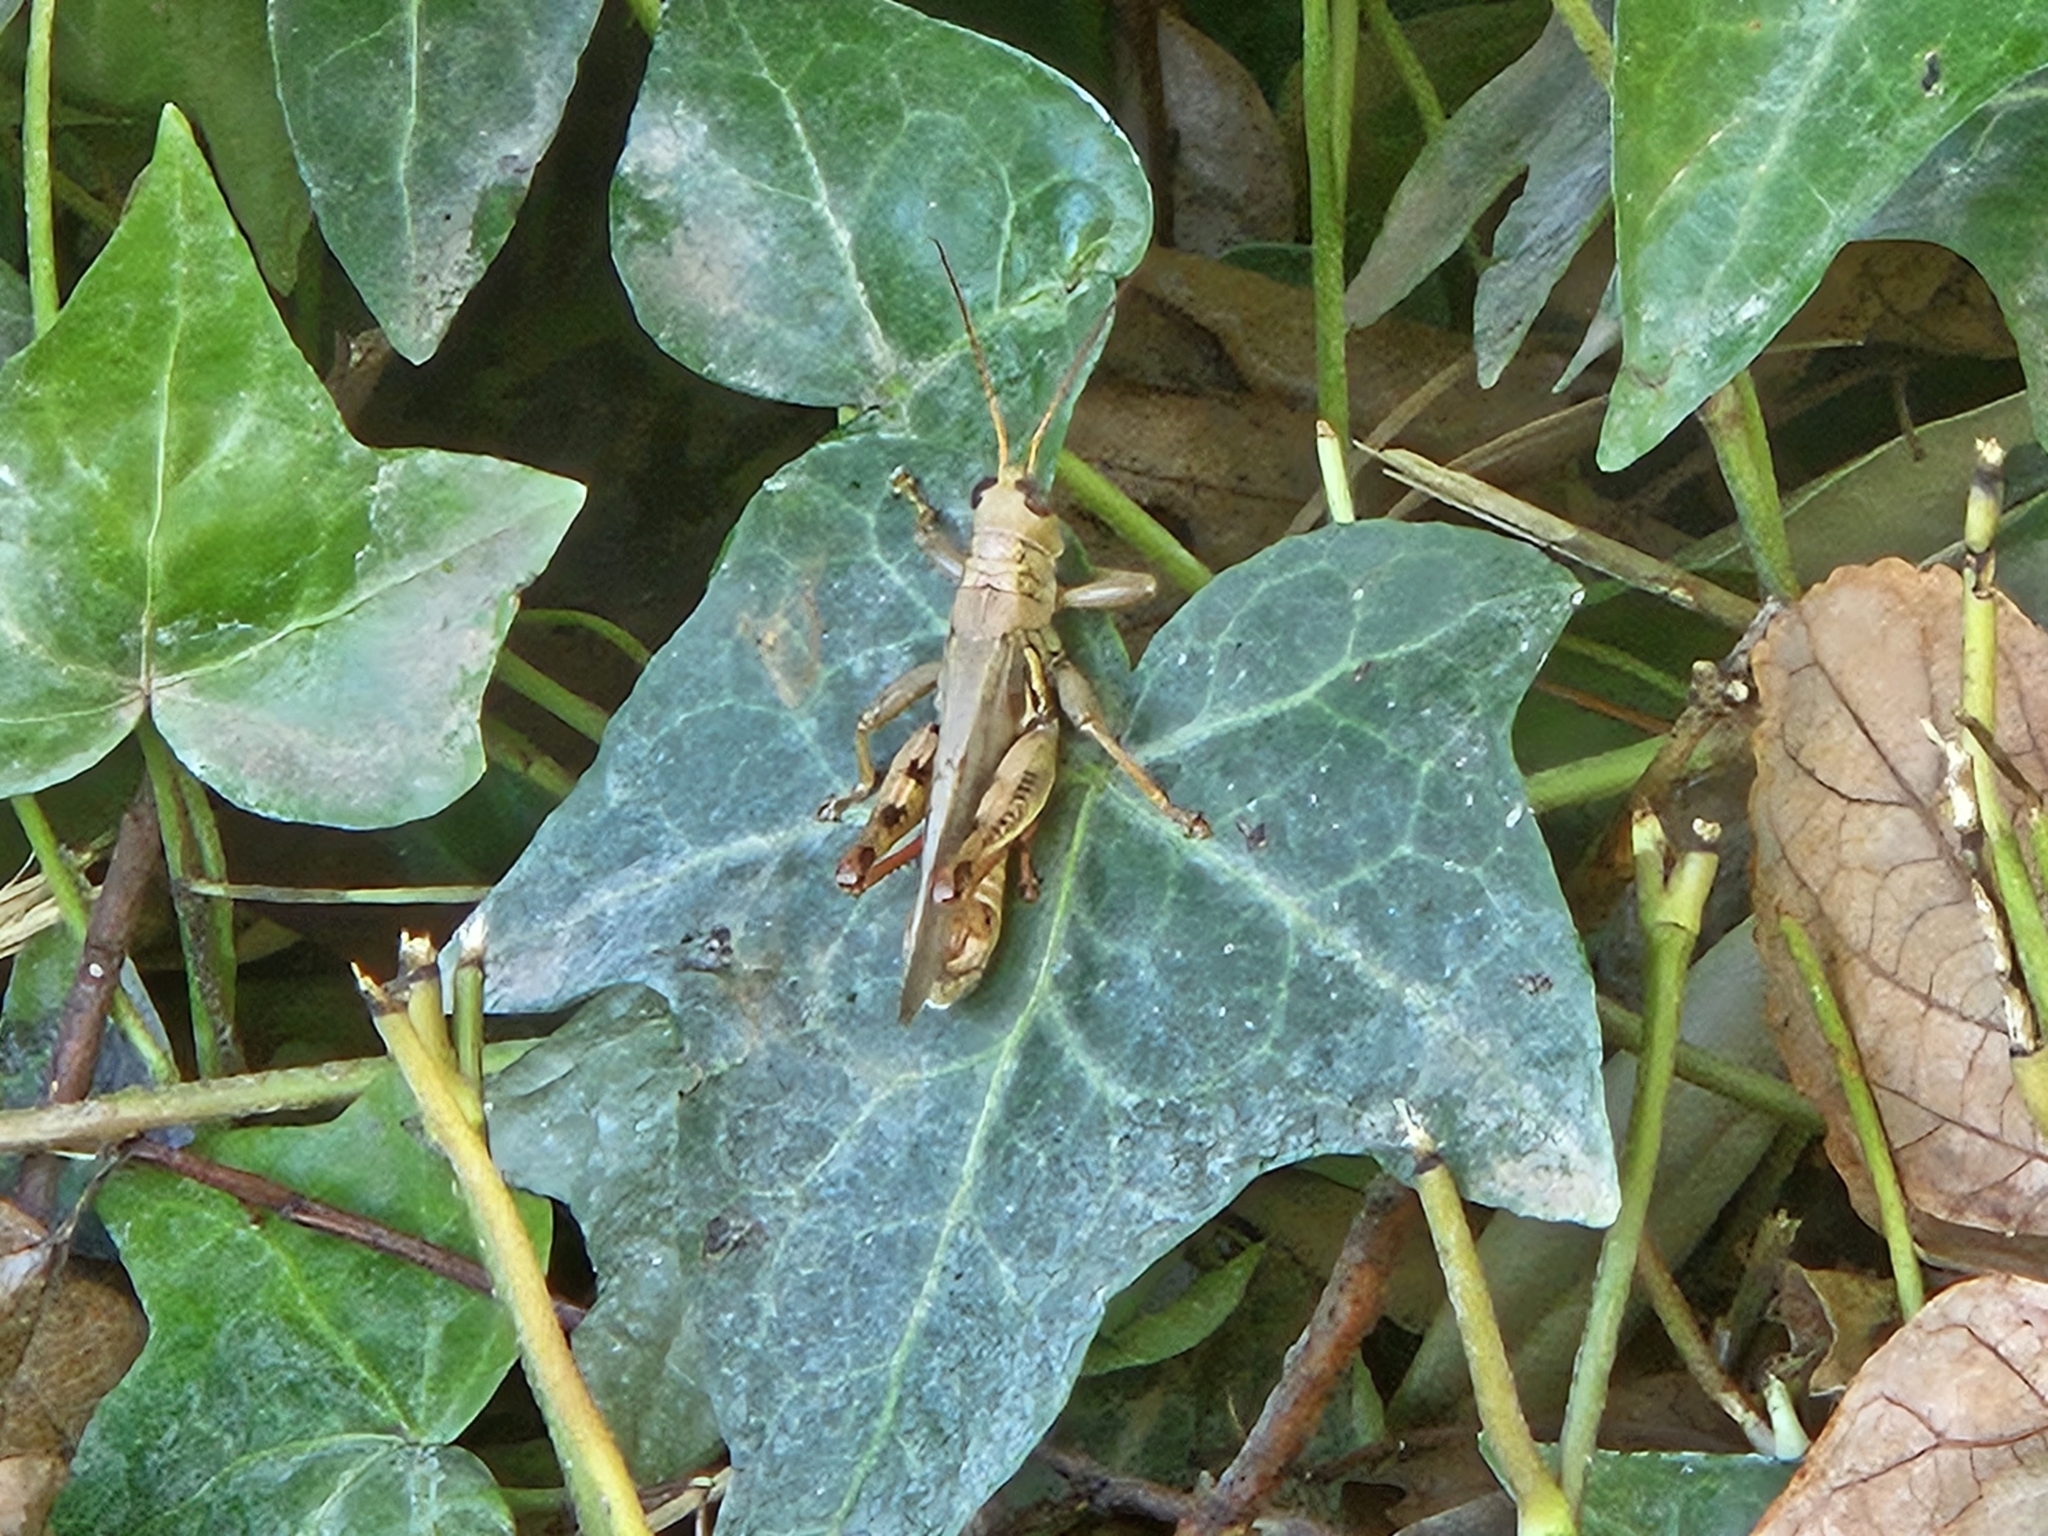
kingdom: Animalia
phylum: Arthropoda
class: Insecta
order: Orthoptera
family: Acrididae
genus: Melanoplus
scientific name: Melanoplus differentialis
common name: Differential grasshopper
